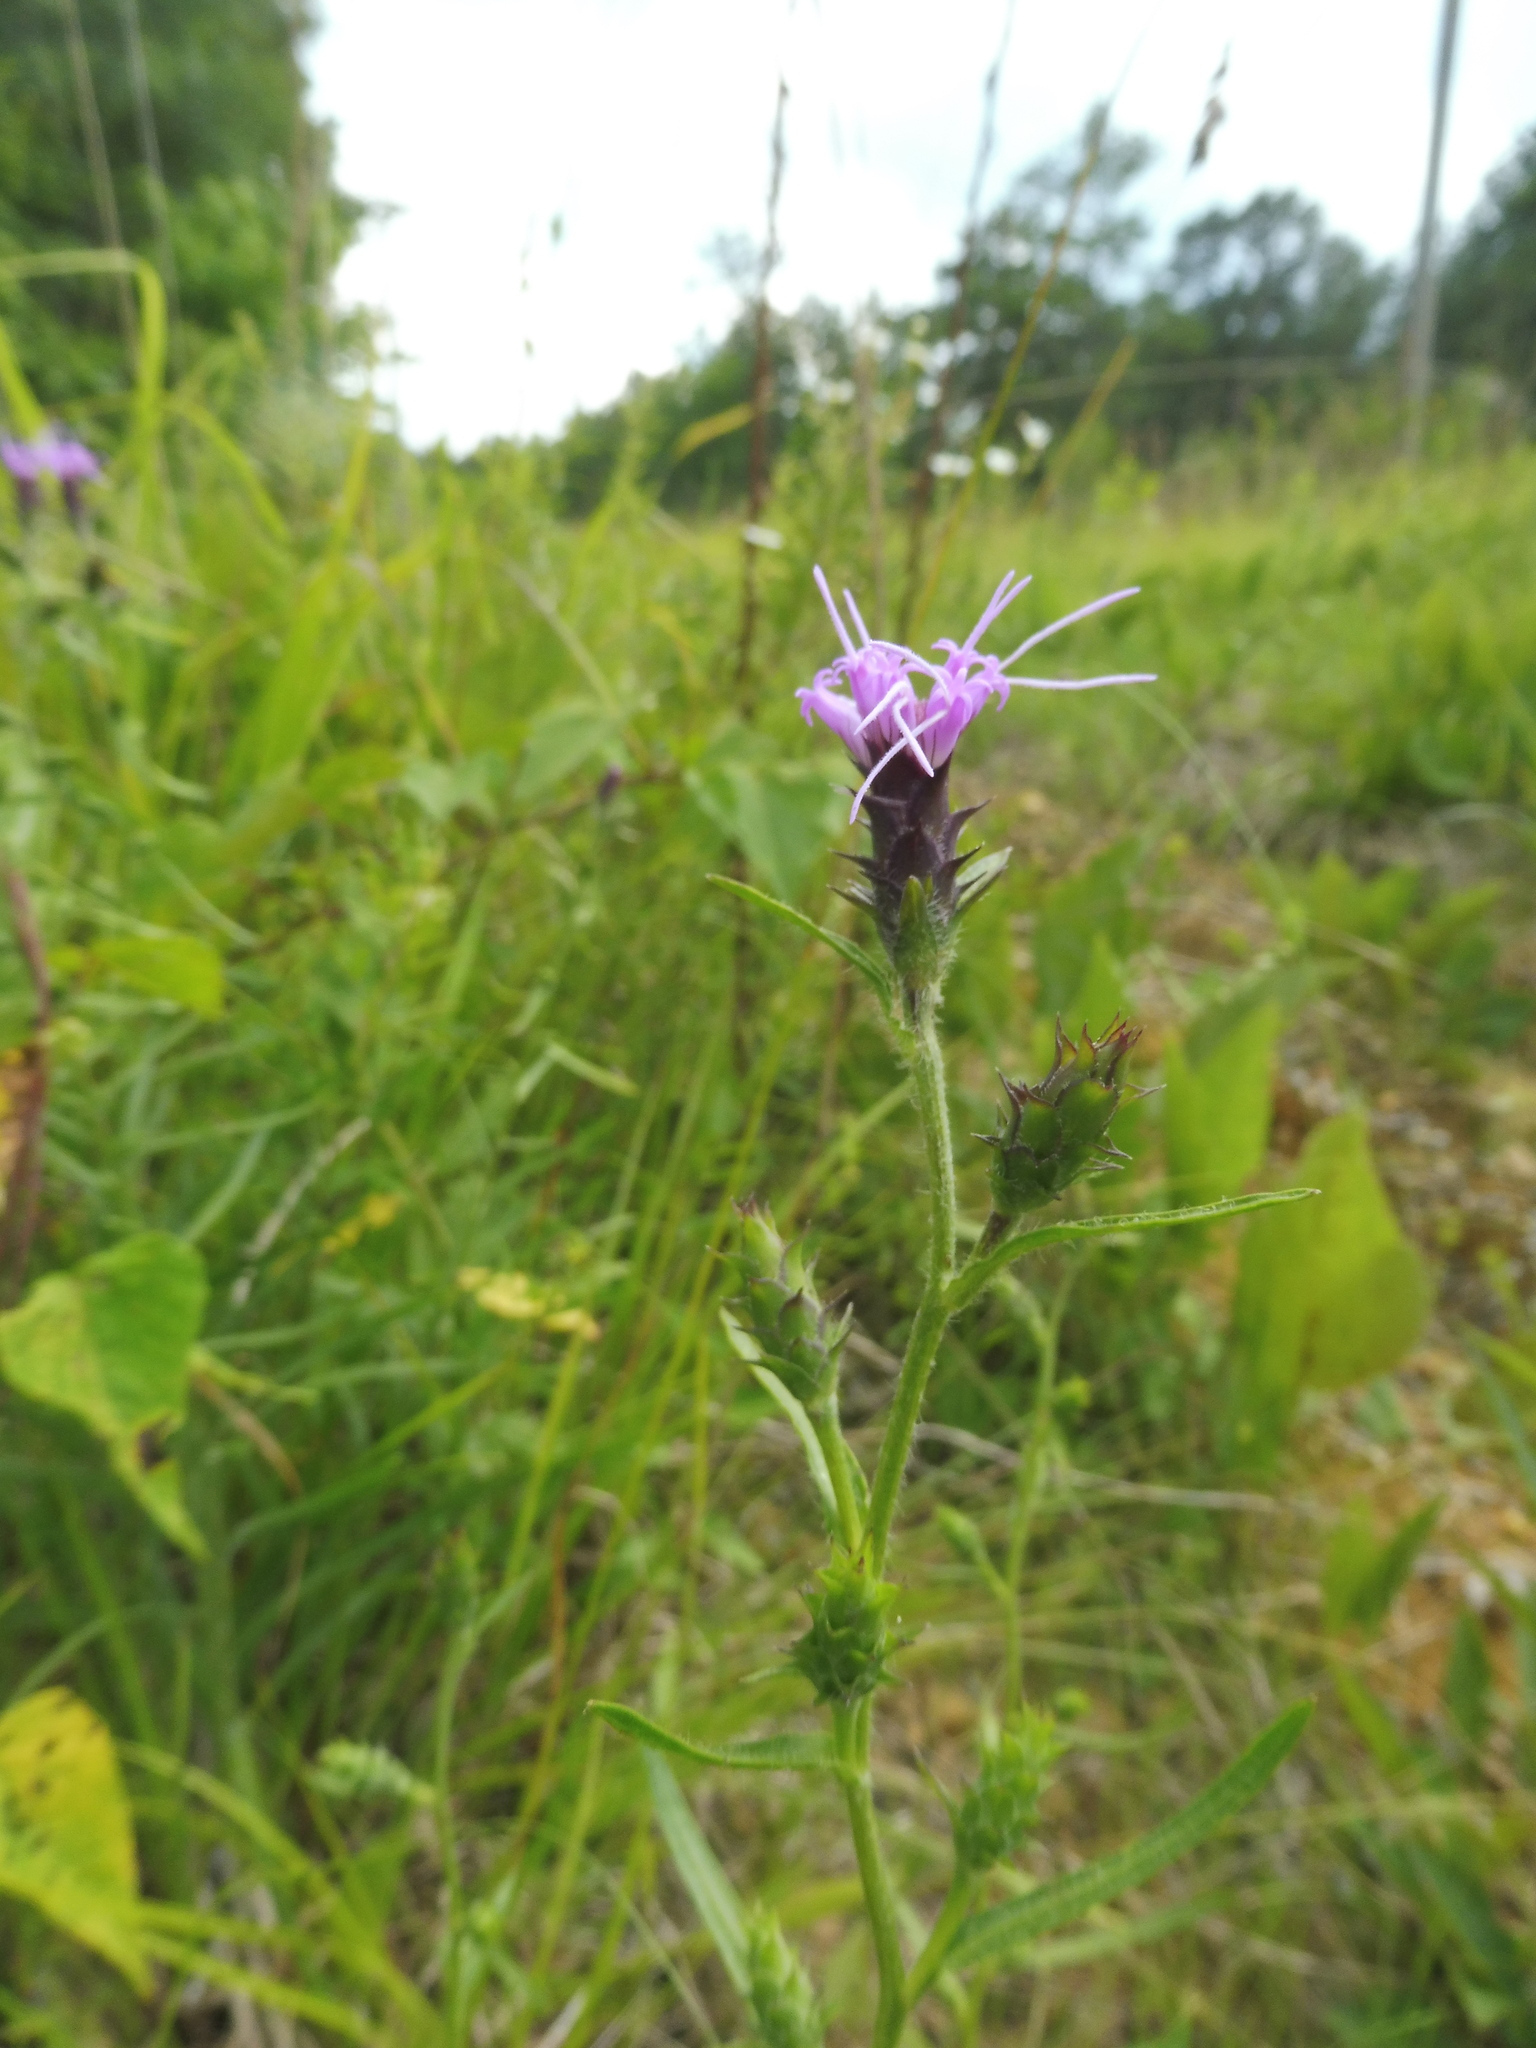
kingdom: Plantae
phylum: Tracheophyta
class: Magnoliopsida
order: Asterales
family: Asteraceae
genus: Liatris
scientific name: Liatris hirsuta
